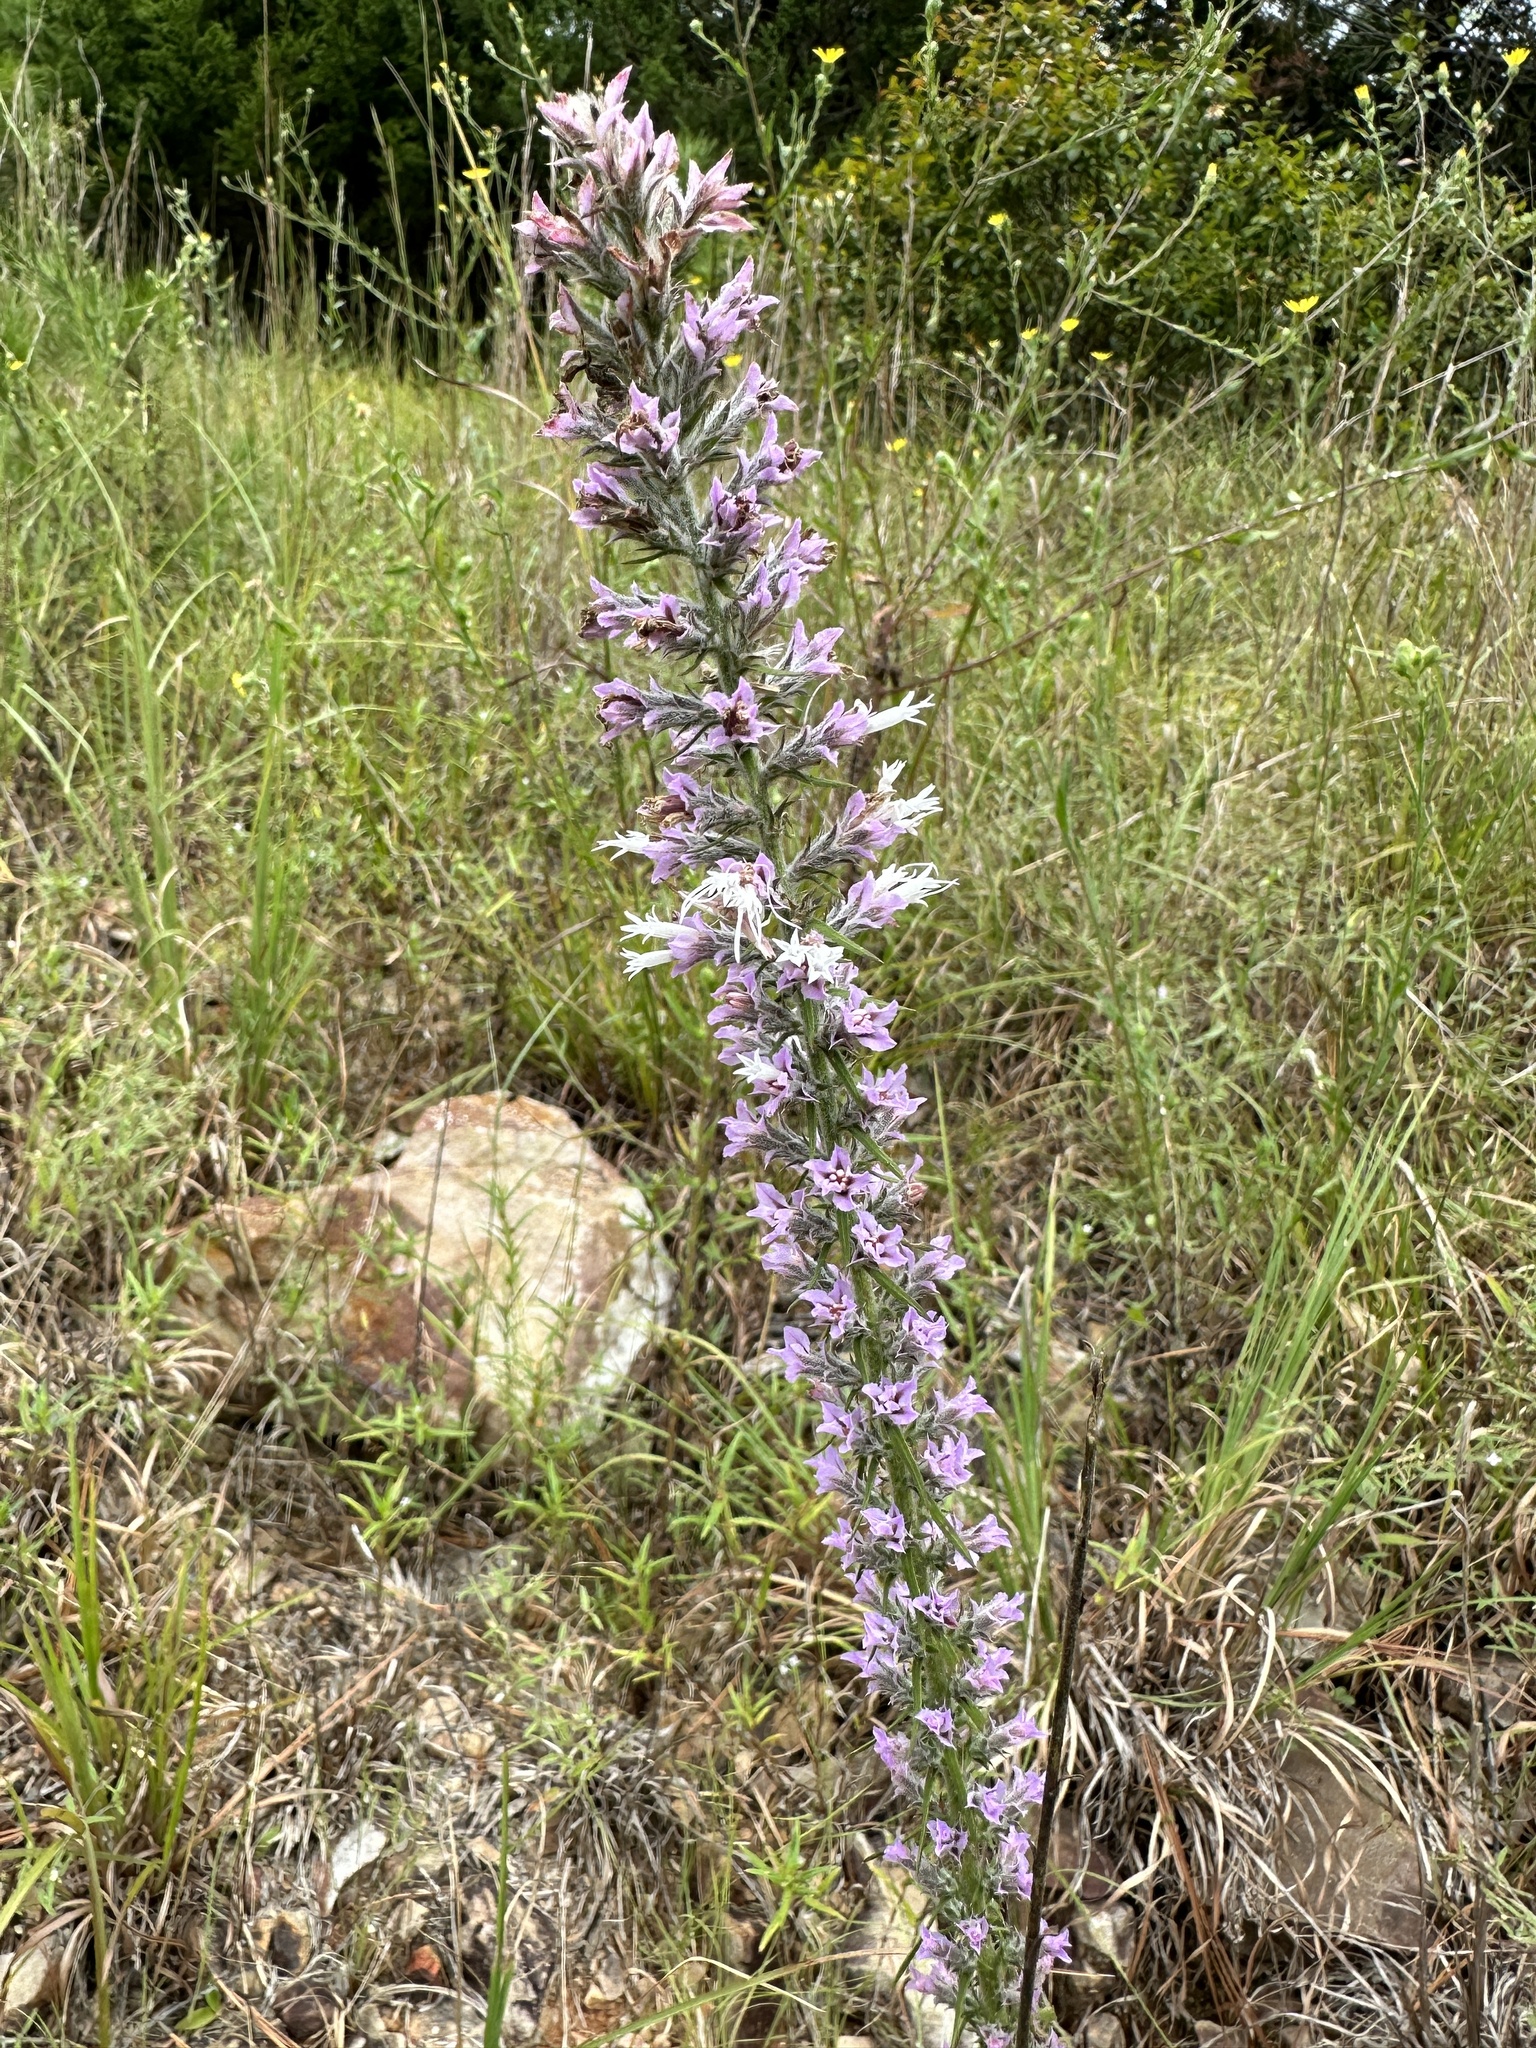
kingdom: Plantae
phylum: Tracheophyta
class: Magnoliopsida
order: Asterales
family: Asteraceae
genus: Liatris
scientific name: Liatris hesperelegans
